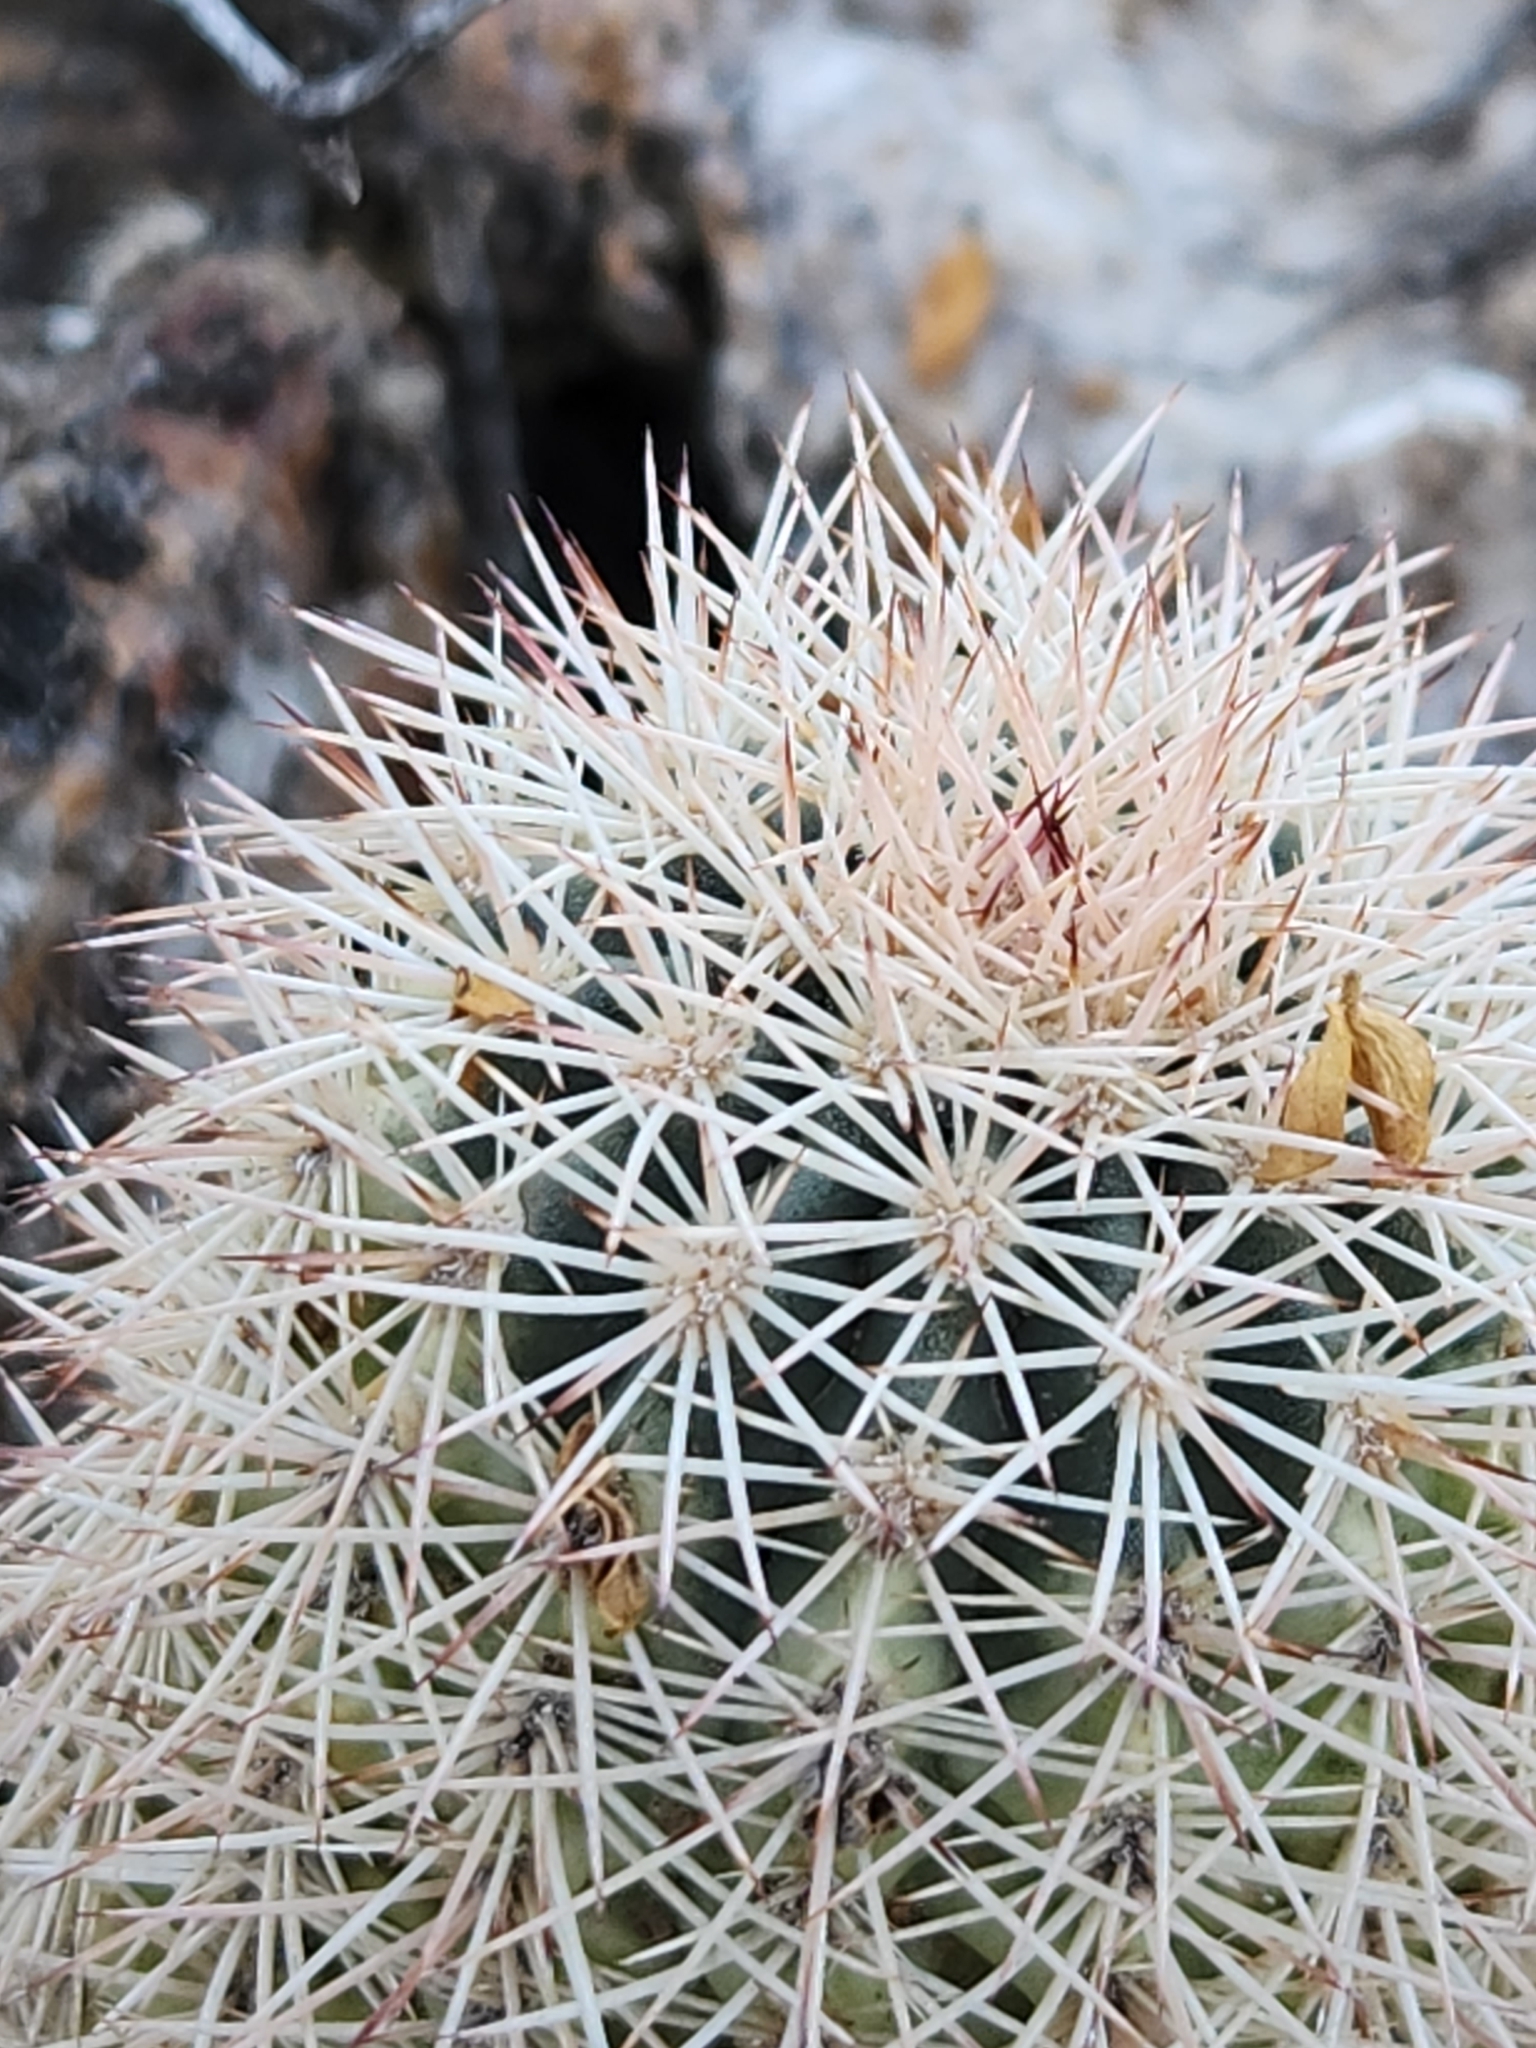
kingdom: Plantae
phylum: Tracheophyta
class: Magnoliopsida
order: Caryophyllales
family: Cactaceae
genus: Echinocereus
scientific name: Echinocereus dasyacanthus
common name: Spiny hedgehog cactus
